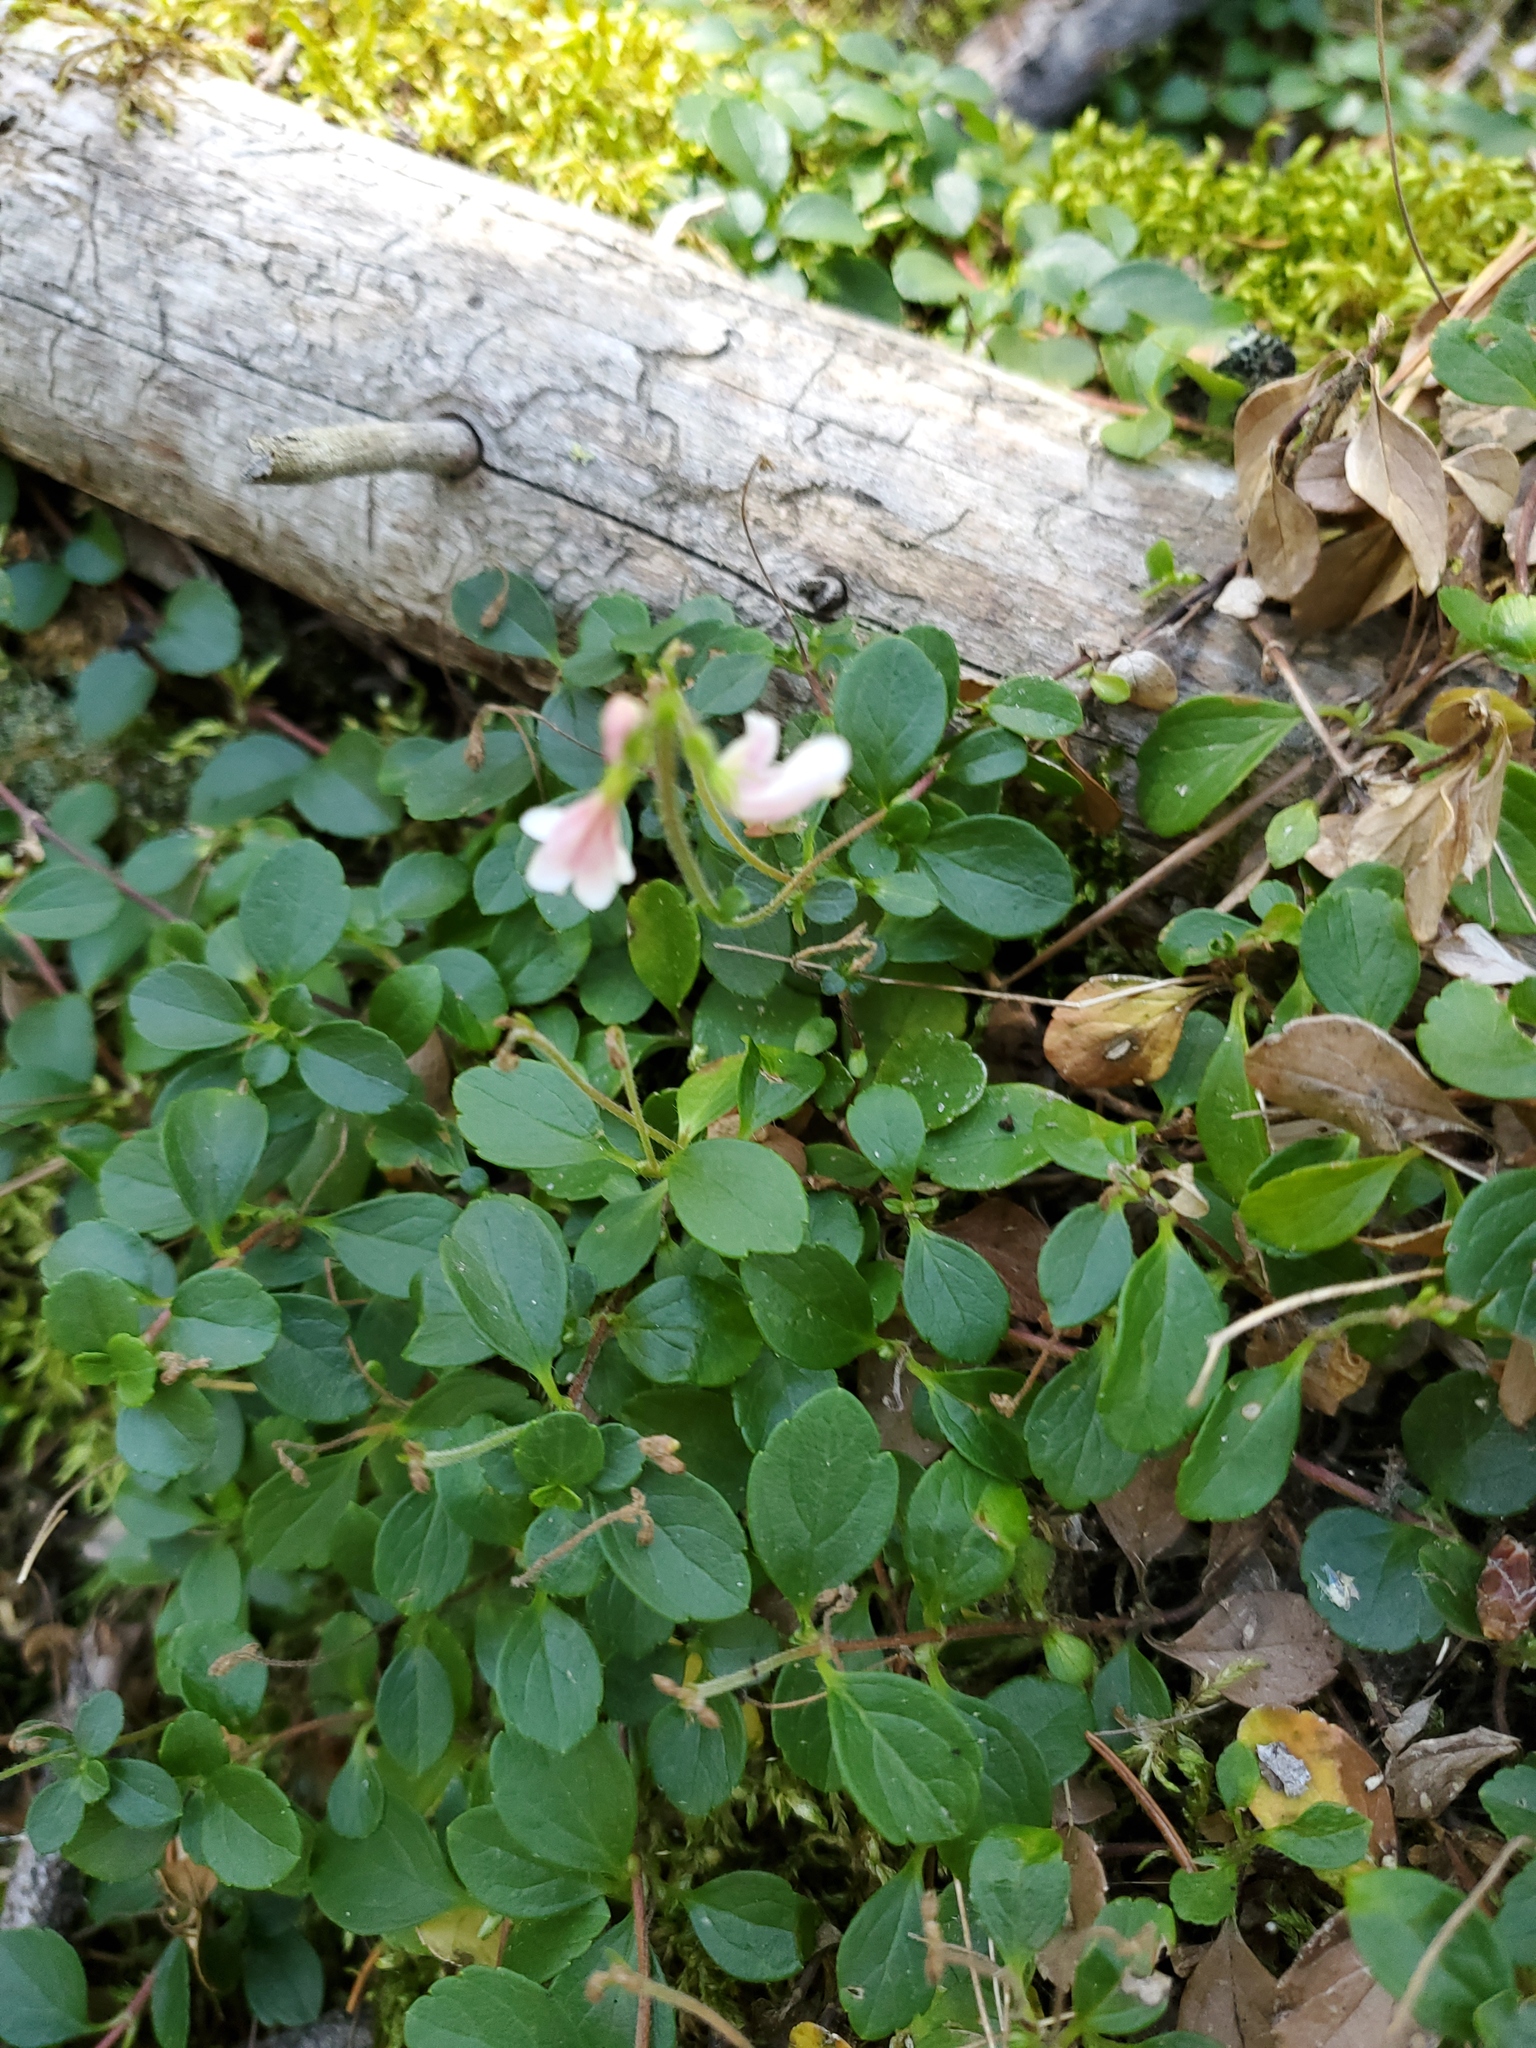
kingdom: Plantae
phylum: Tracheophyta
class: Magnoliopsida
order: Dipsacales
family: Caprifoliaceae
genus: Linnaea
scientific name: Linnaea borealis
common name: Twinflower
